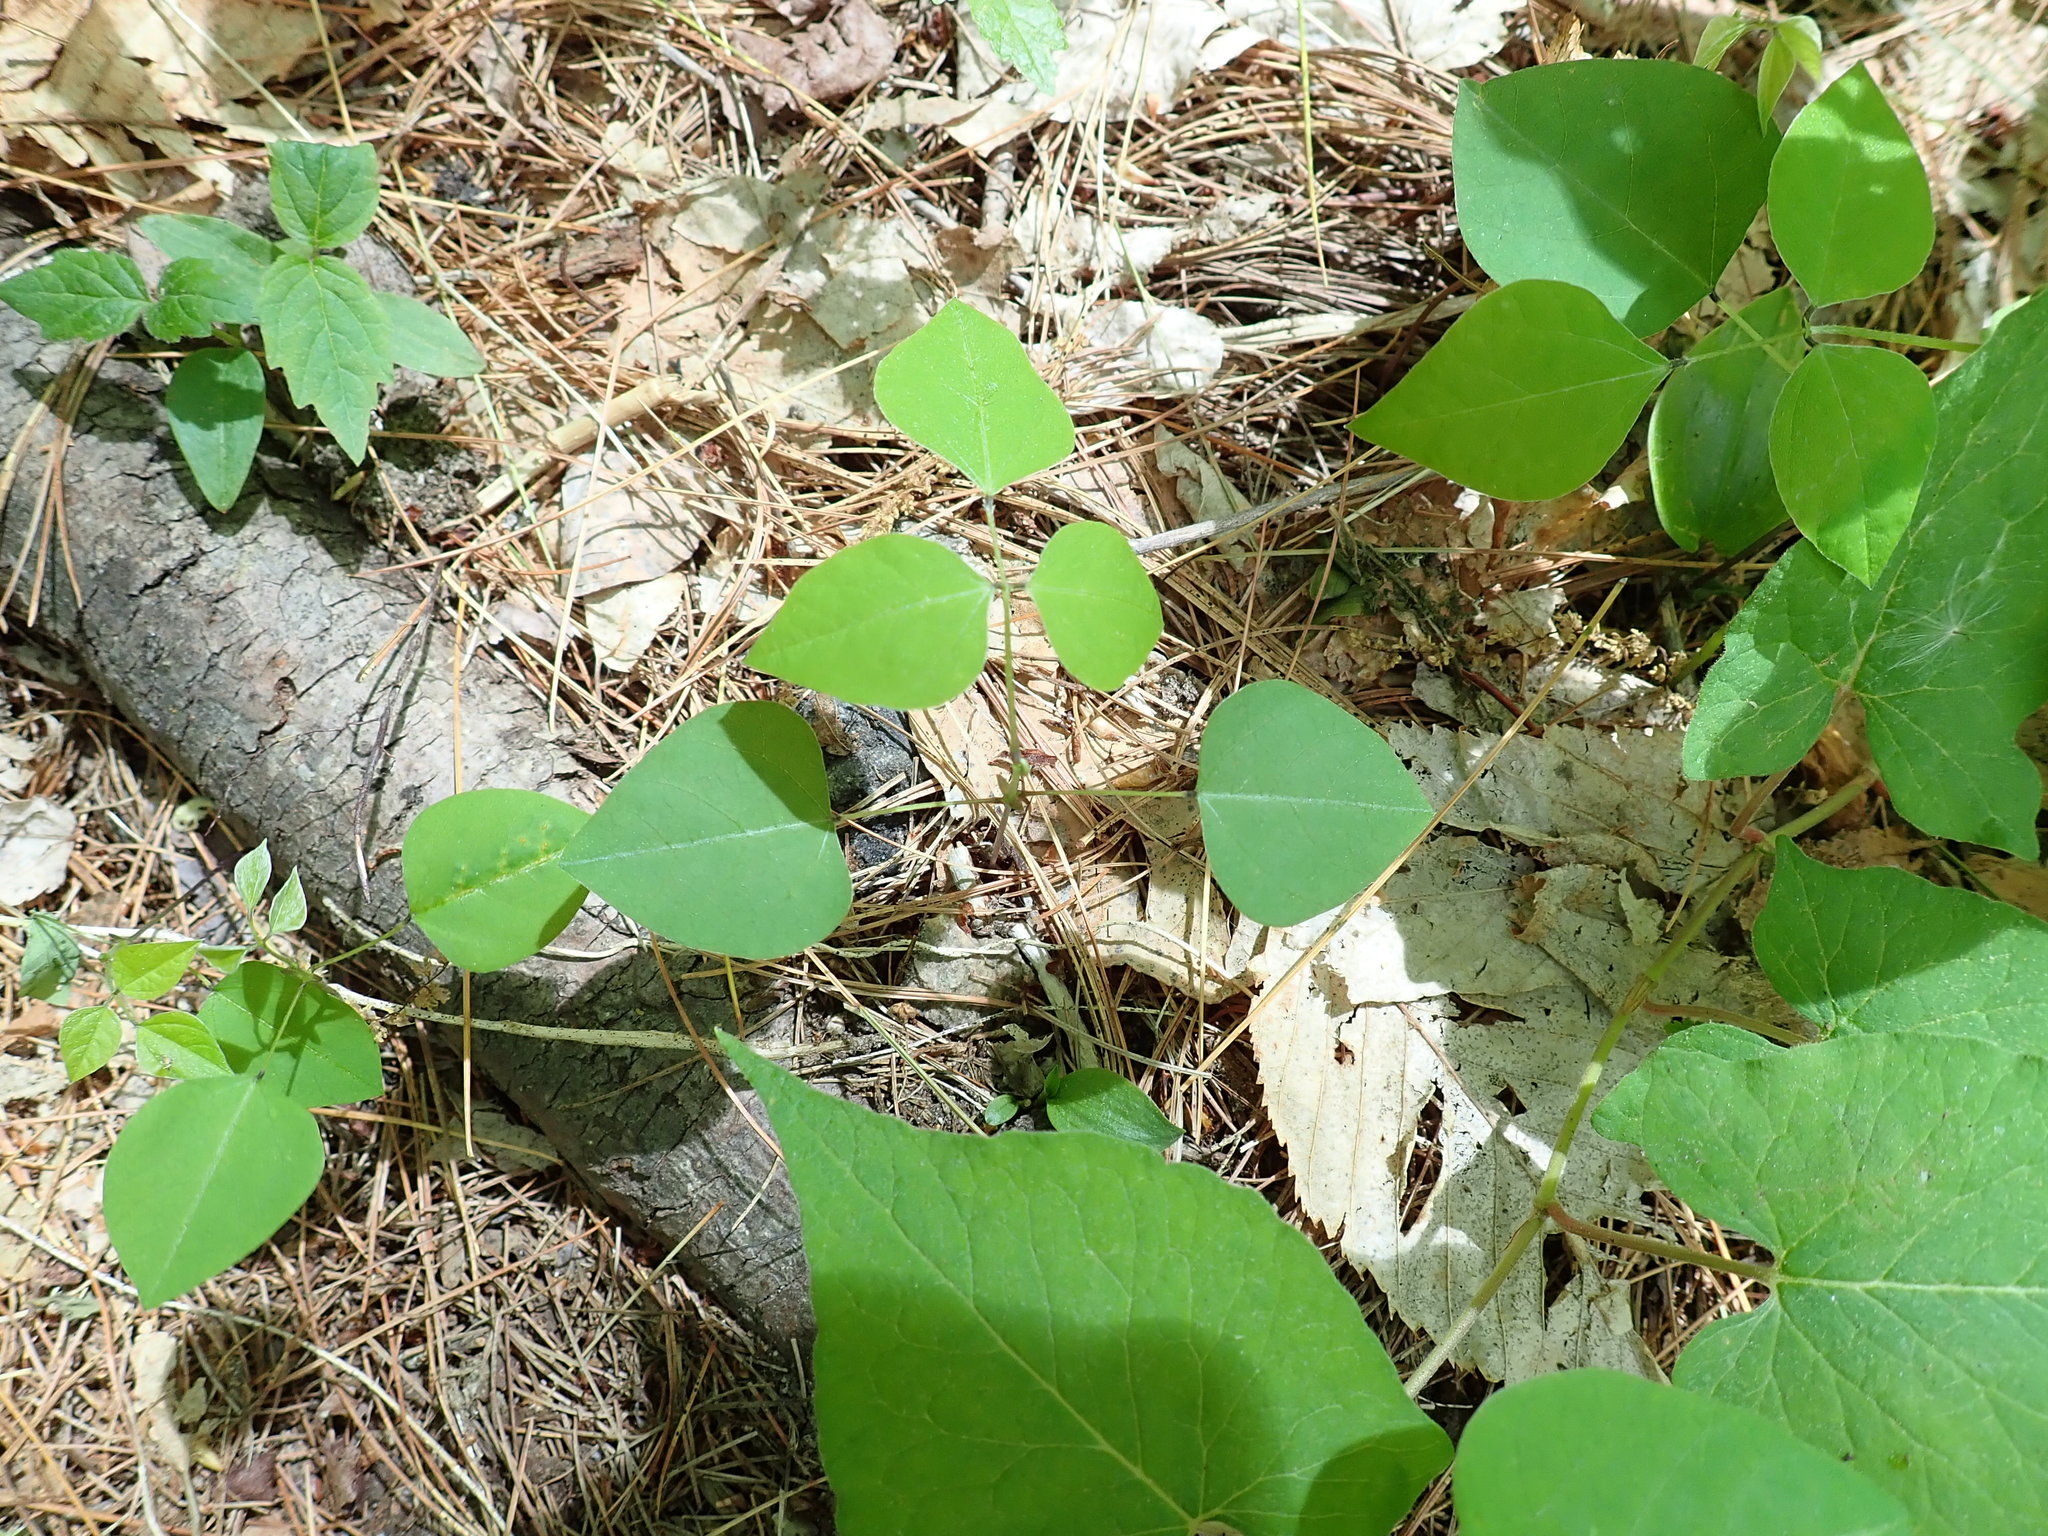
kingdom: Plantae
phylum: Tracheophyta
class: Magnoliopsida
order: Fabales
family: Fabaceae
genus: Amphicarpaea
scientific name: Amphicarpaea bracteata
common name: American hog peanut
